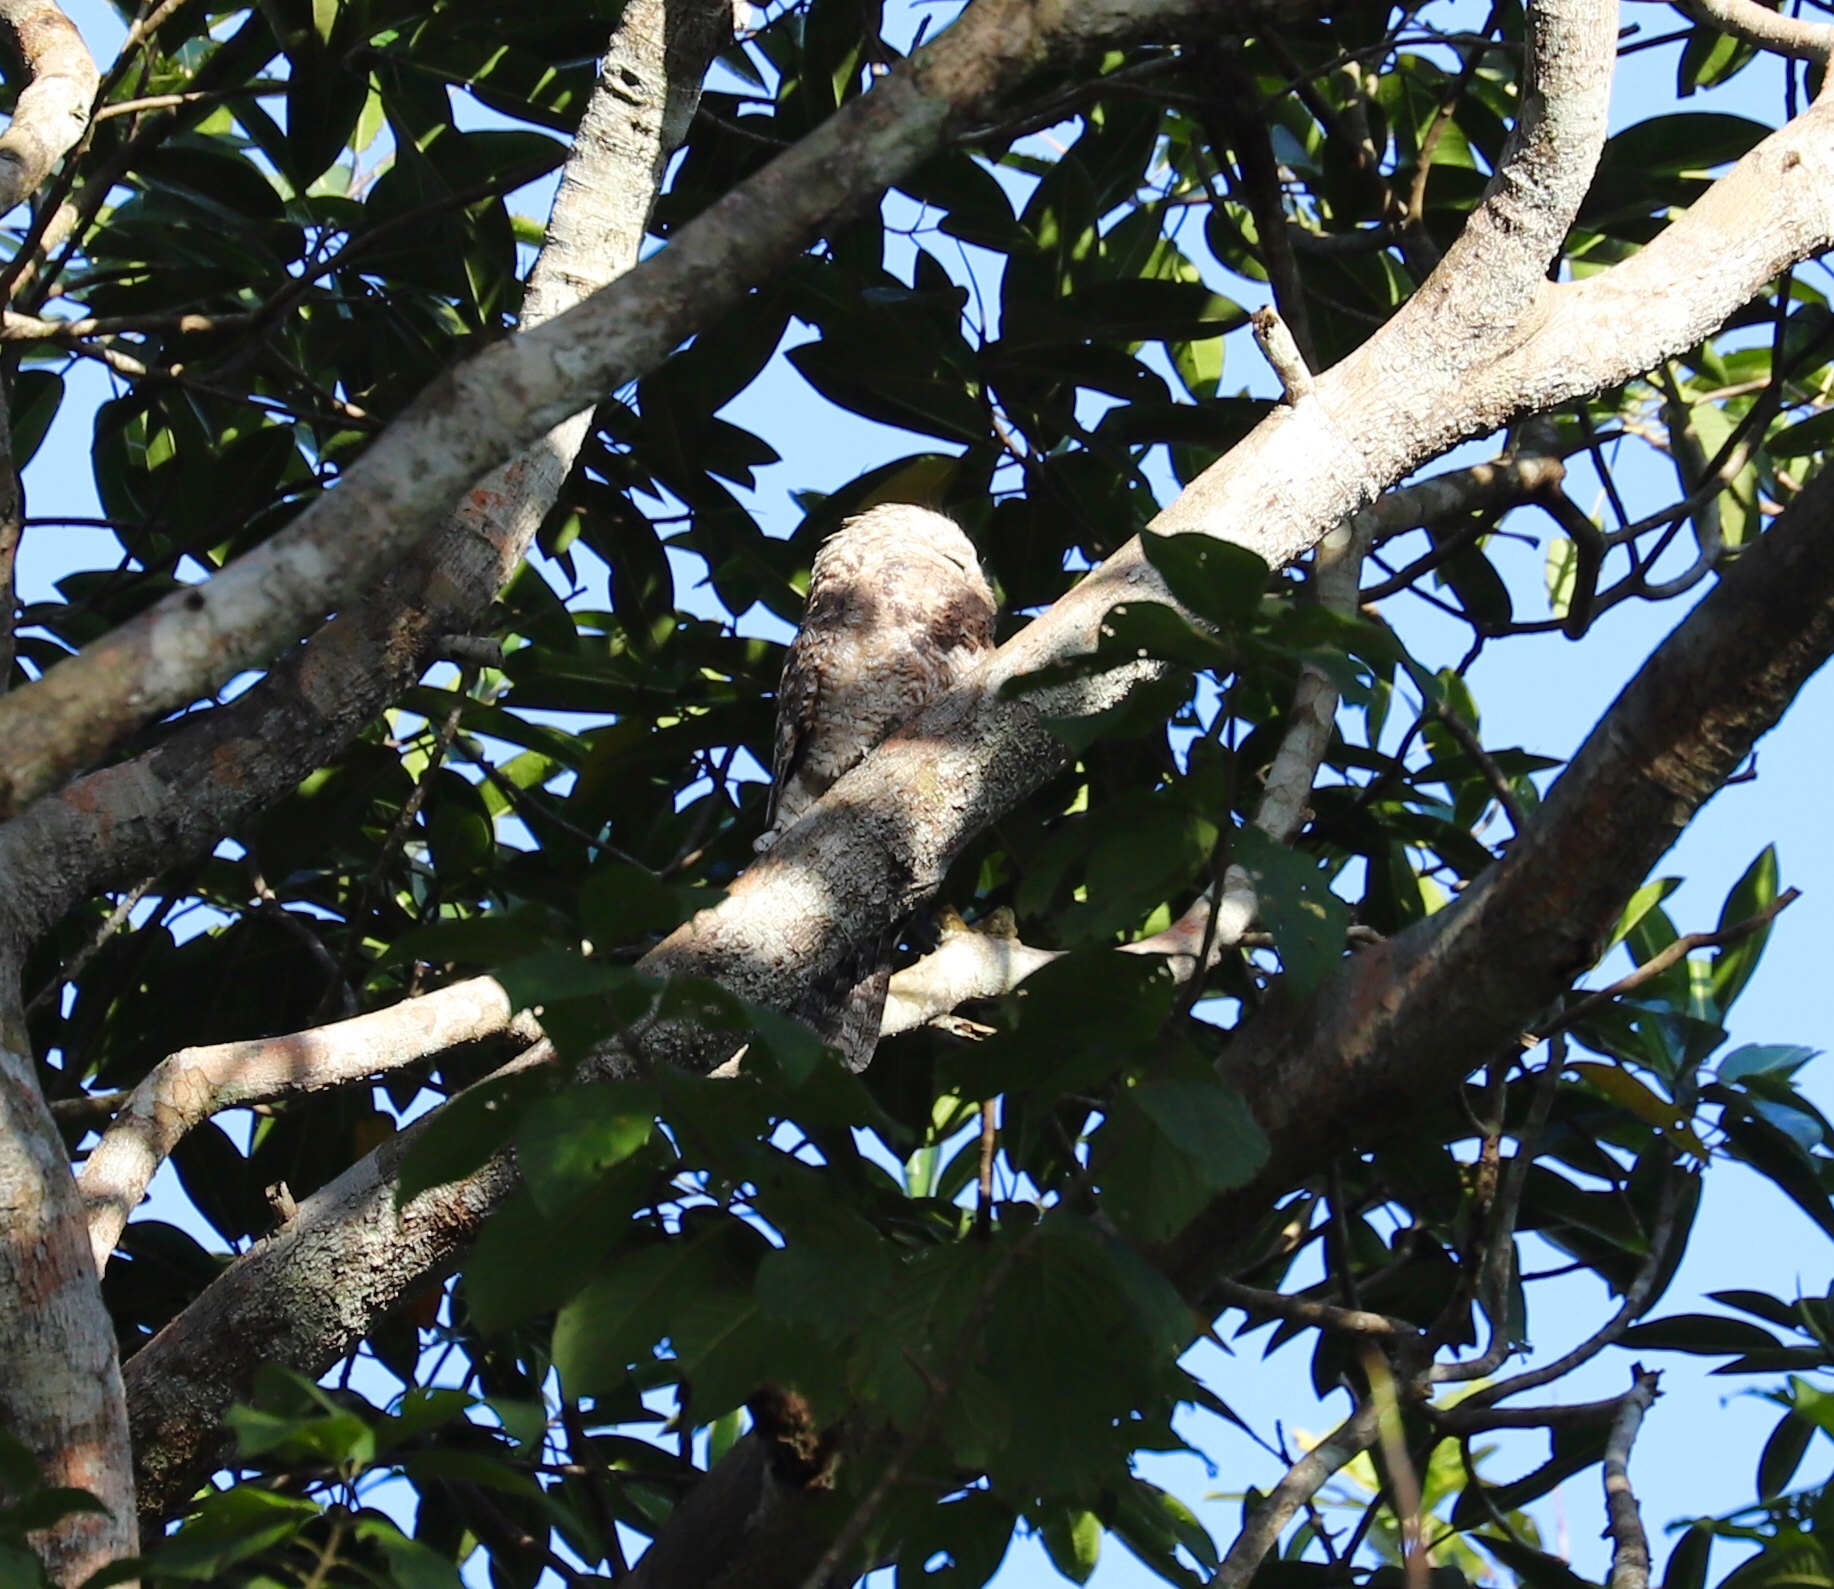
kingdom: Animalia
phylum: Chordata
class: Aves
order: Nyctibiiformes
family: Nyctibiidae
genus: Nyctibius
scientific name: Nyctibius grandis
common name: Great potoo
